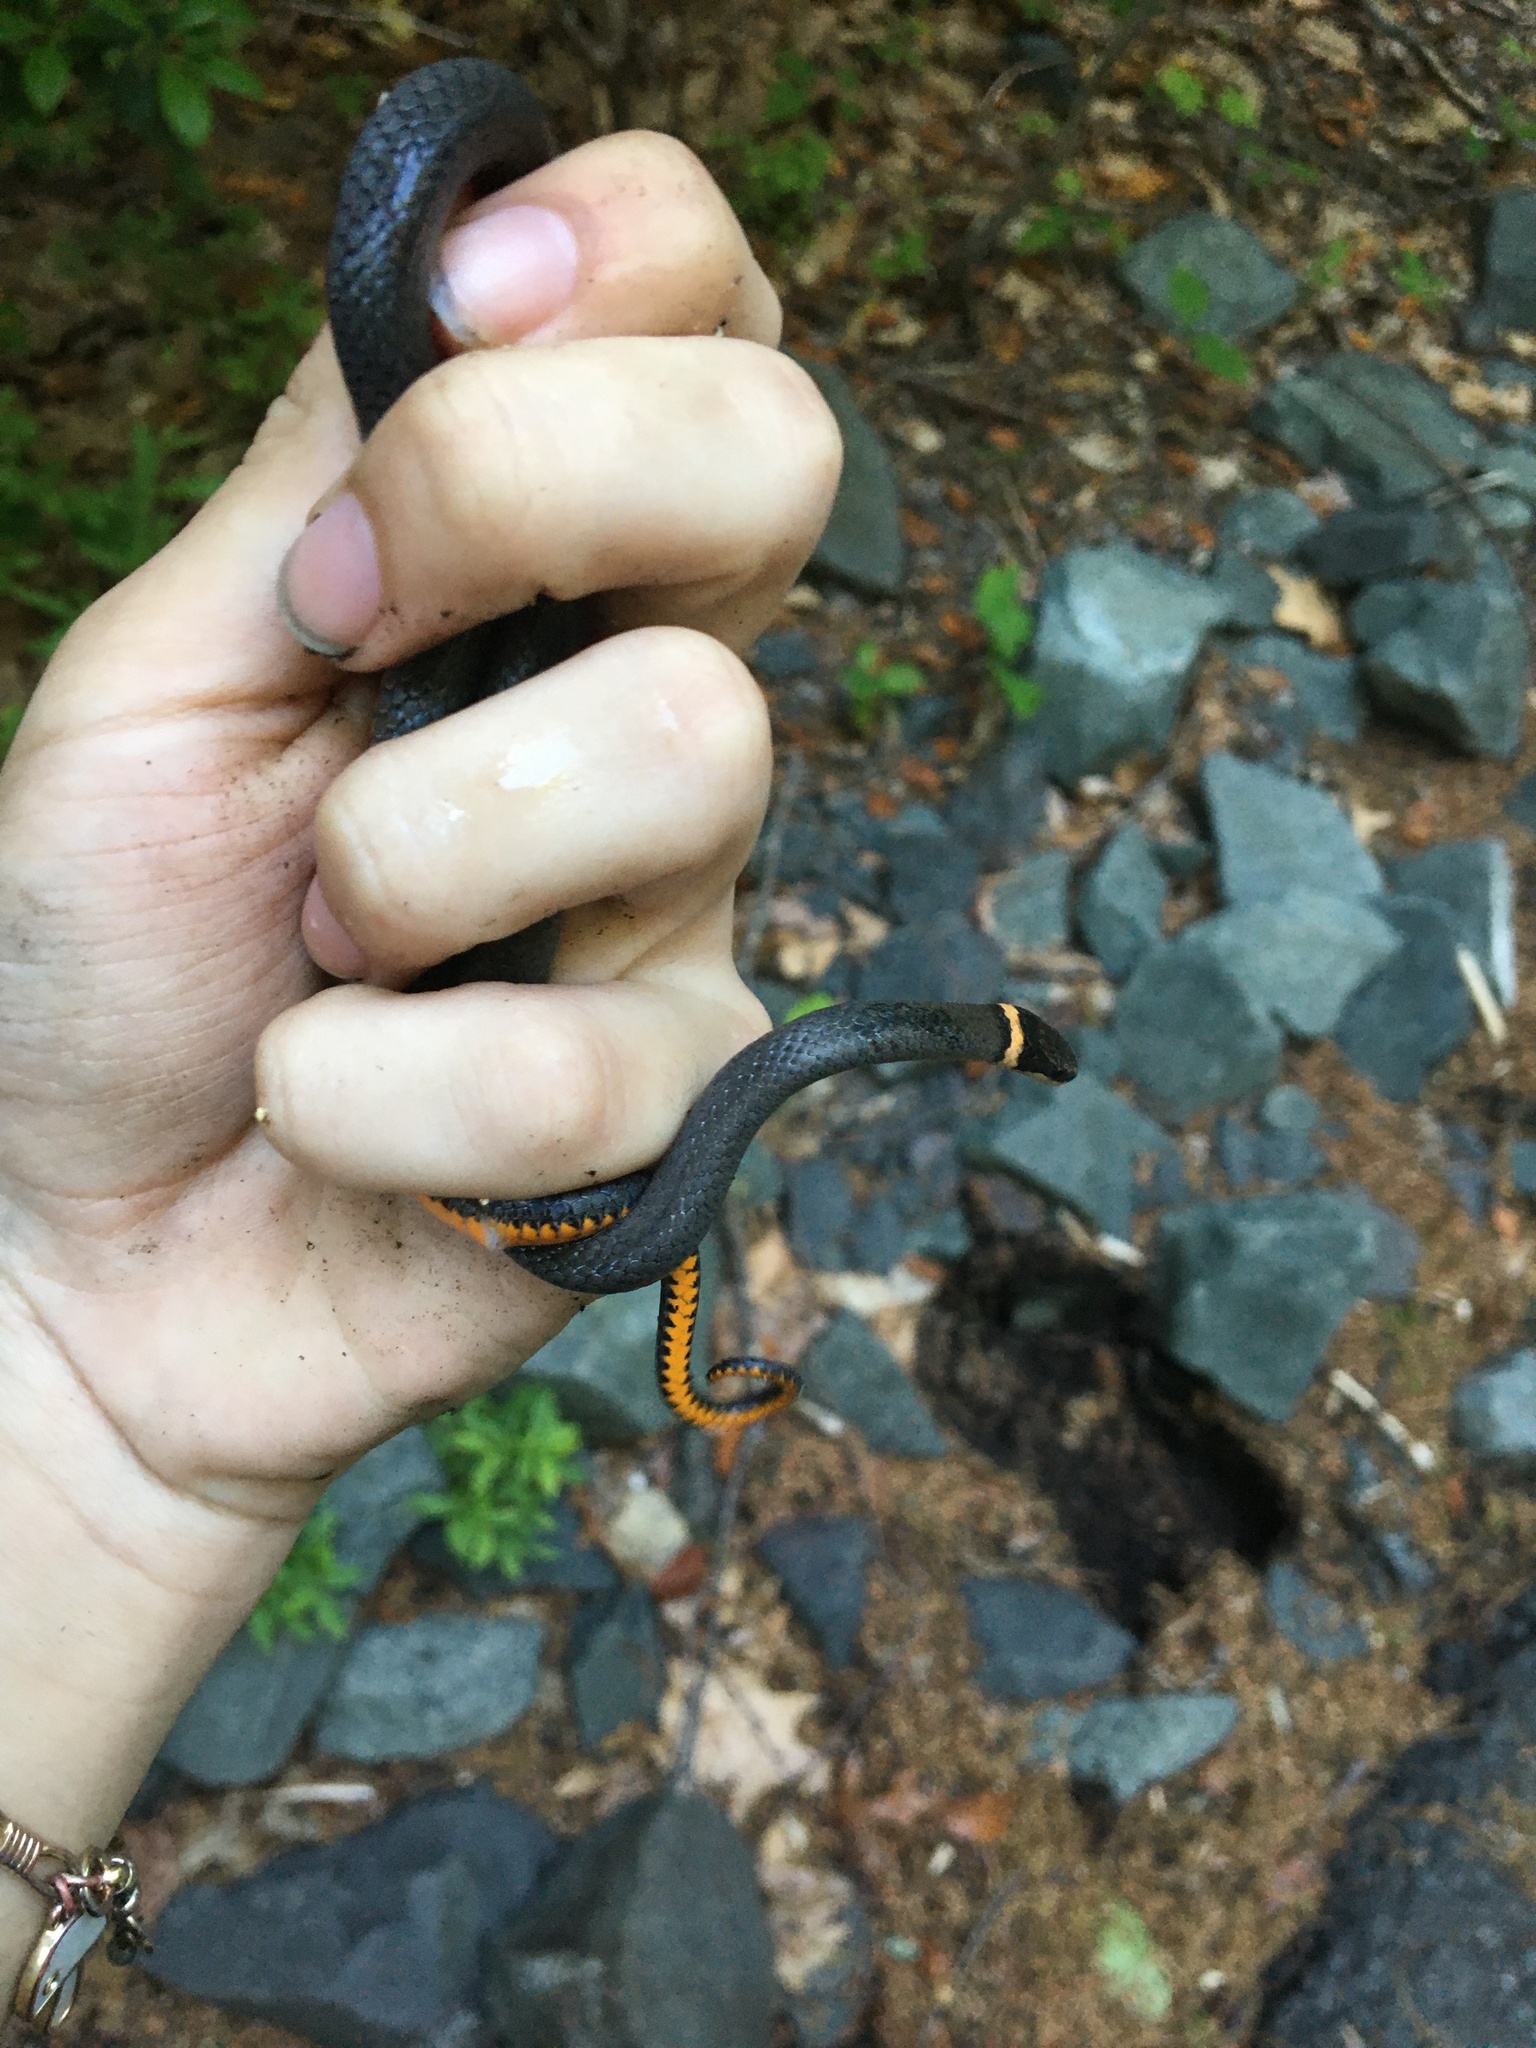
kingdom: Animalia
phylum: Chordata
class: Squamata
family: Colubridae
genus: Diadophis
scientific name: Diadophis punctatus
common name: Ringneck snake
